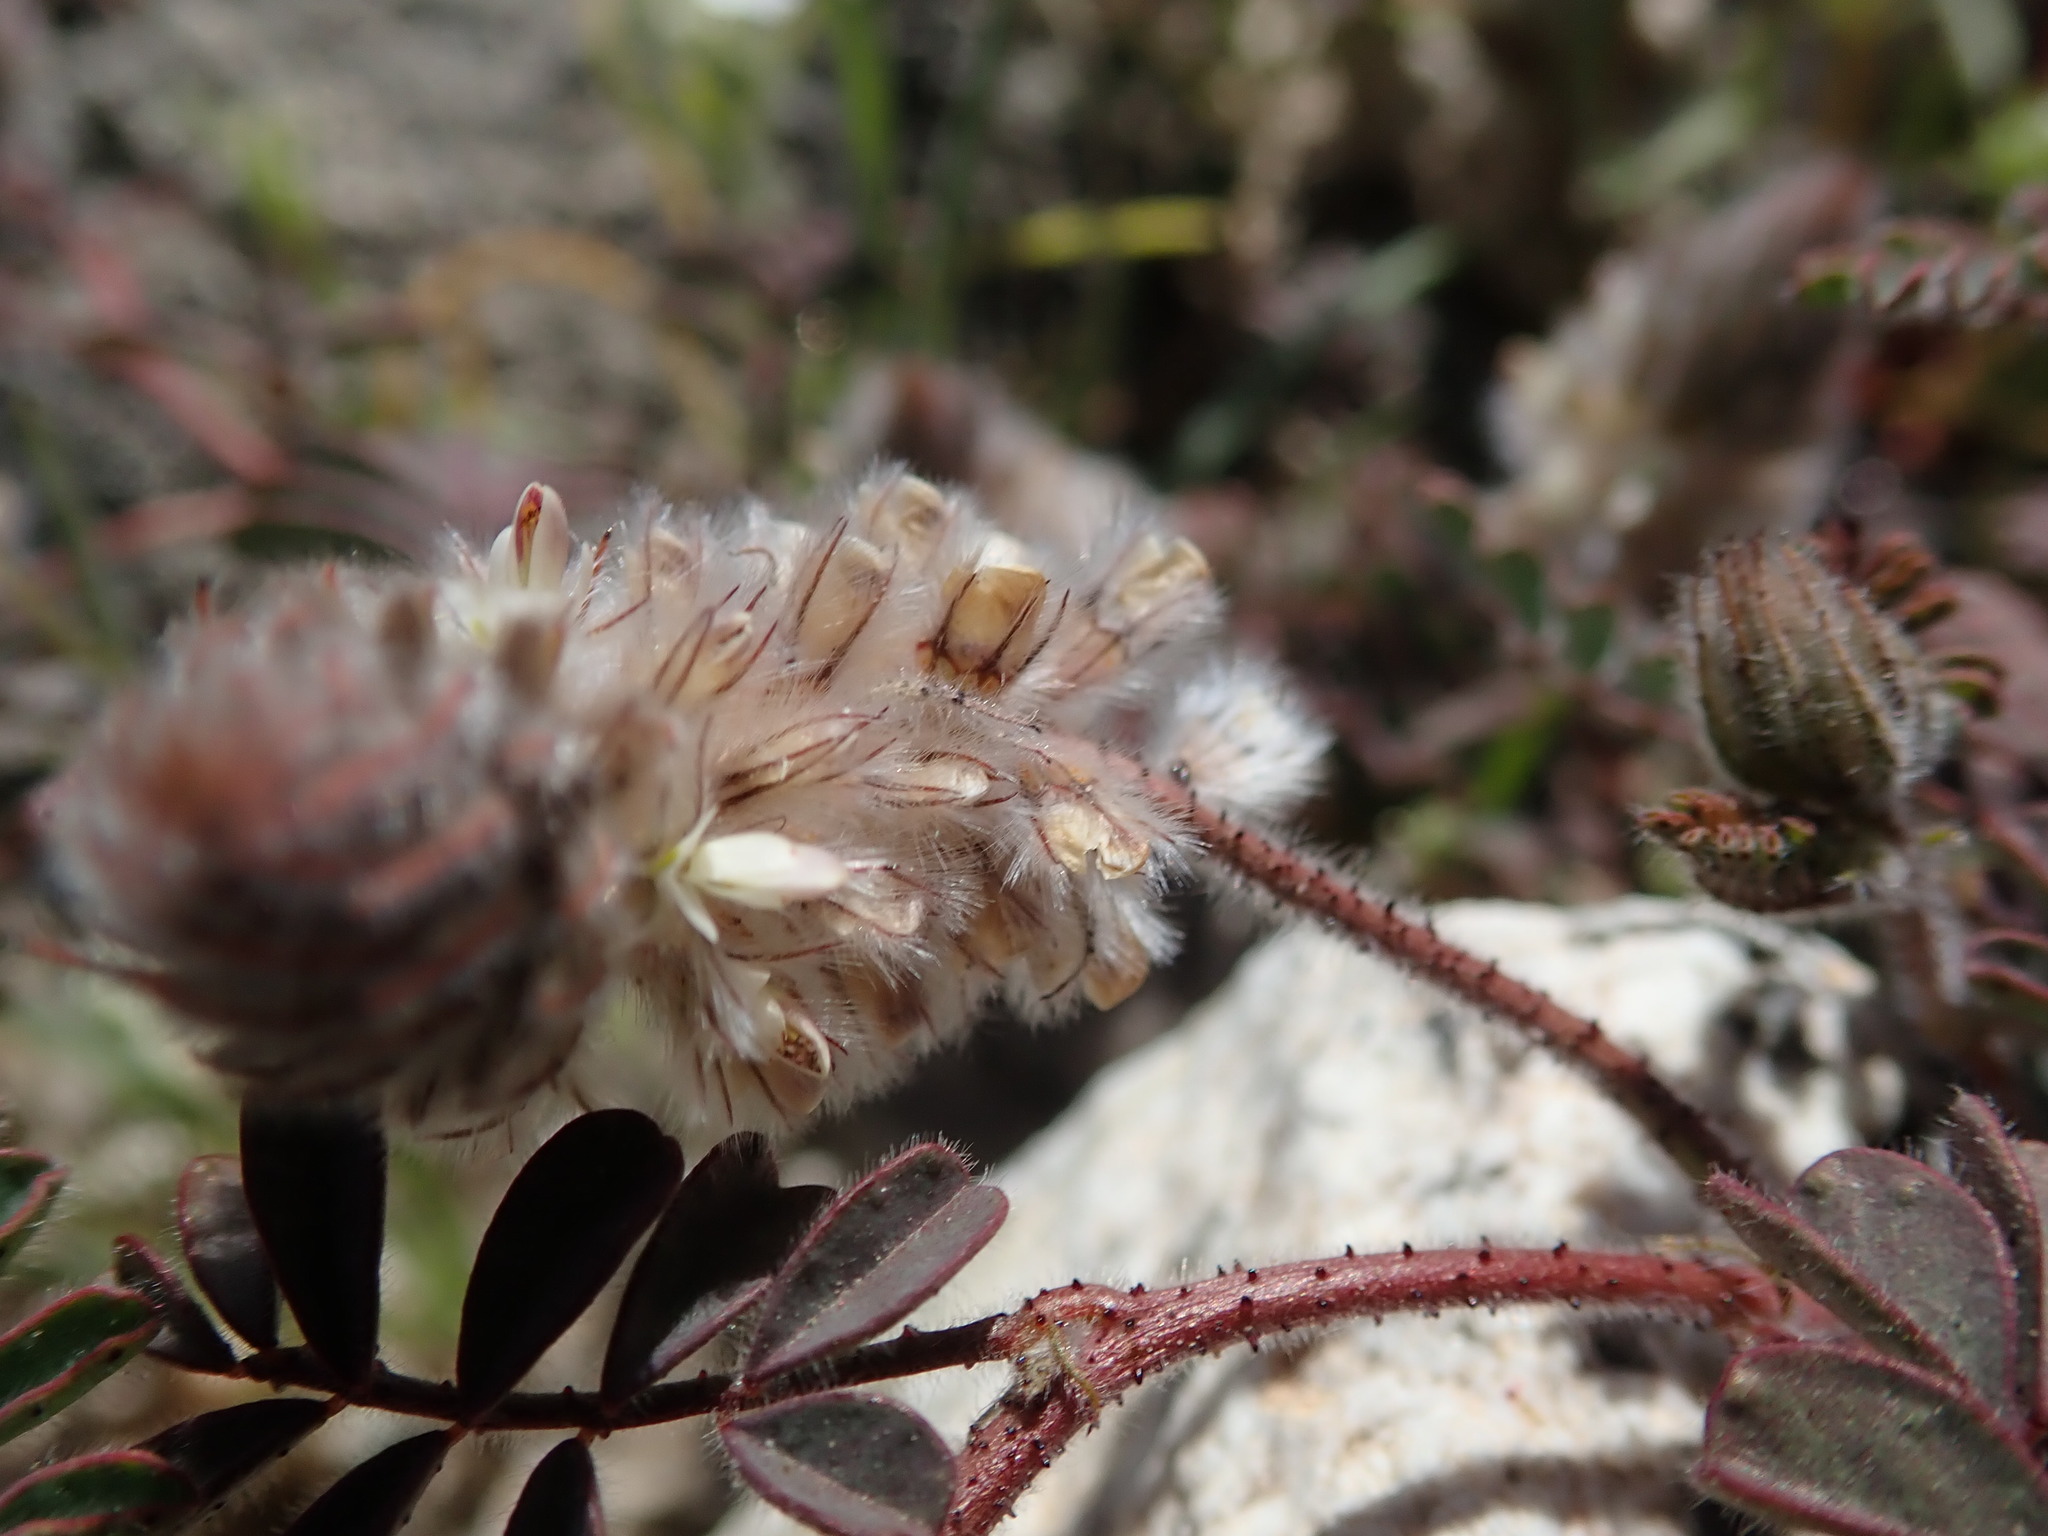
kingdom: Plantae
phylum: Tracheophyta
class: Magnoliopsida
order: Fabales
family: Fabaceae
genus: Dalea
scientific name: Dalea mollis
